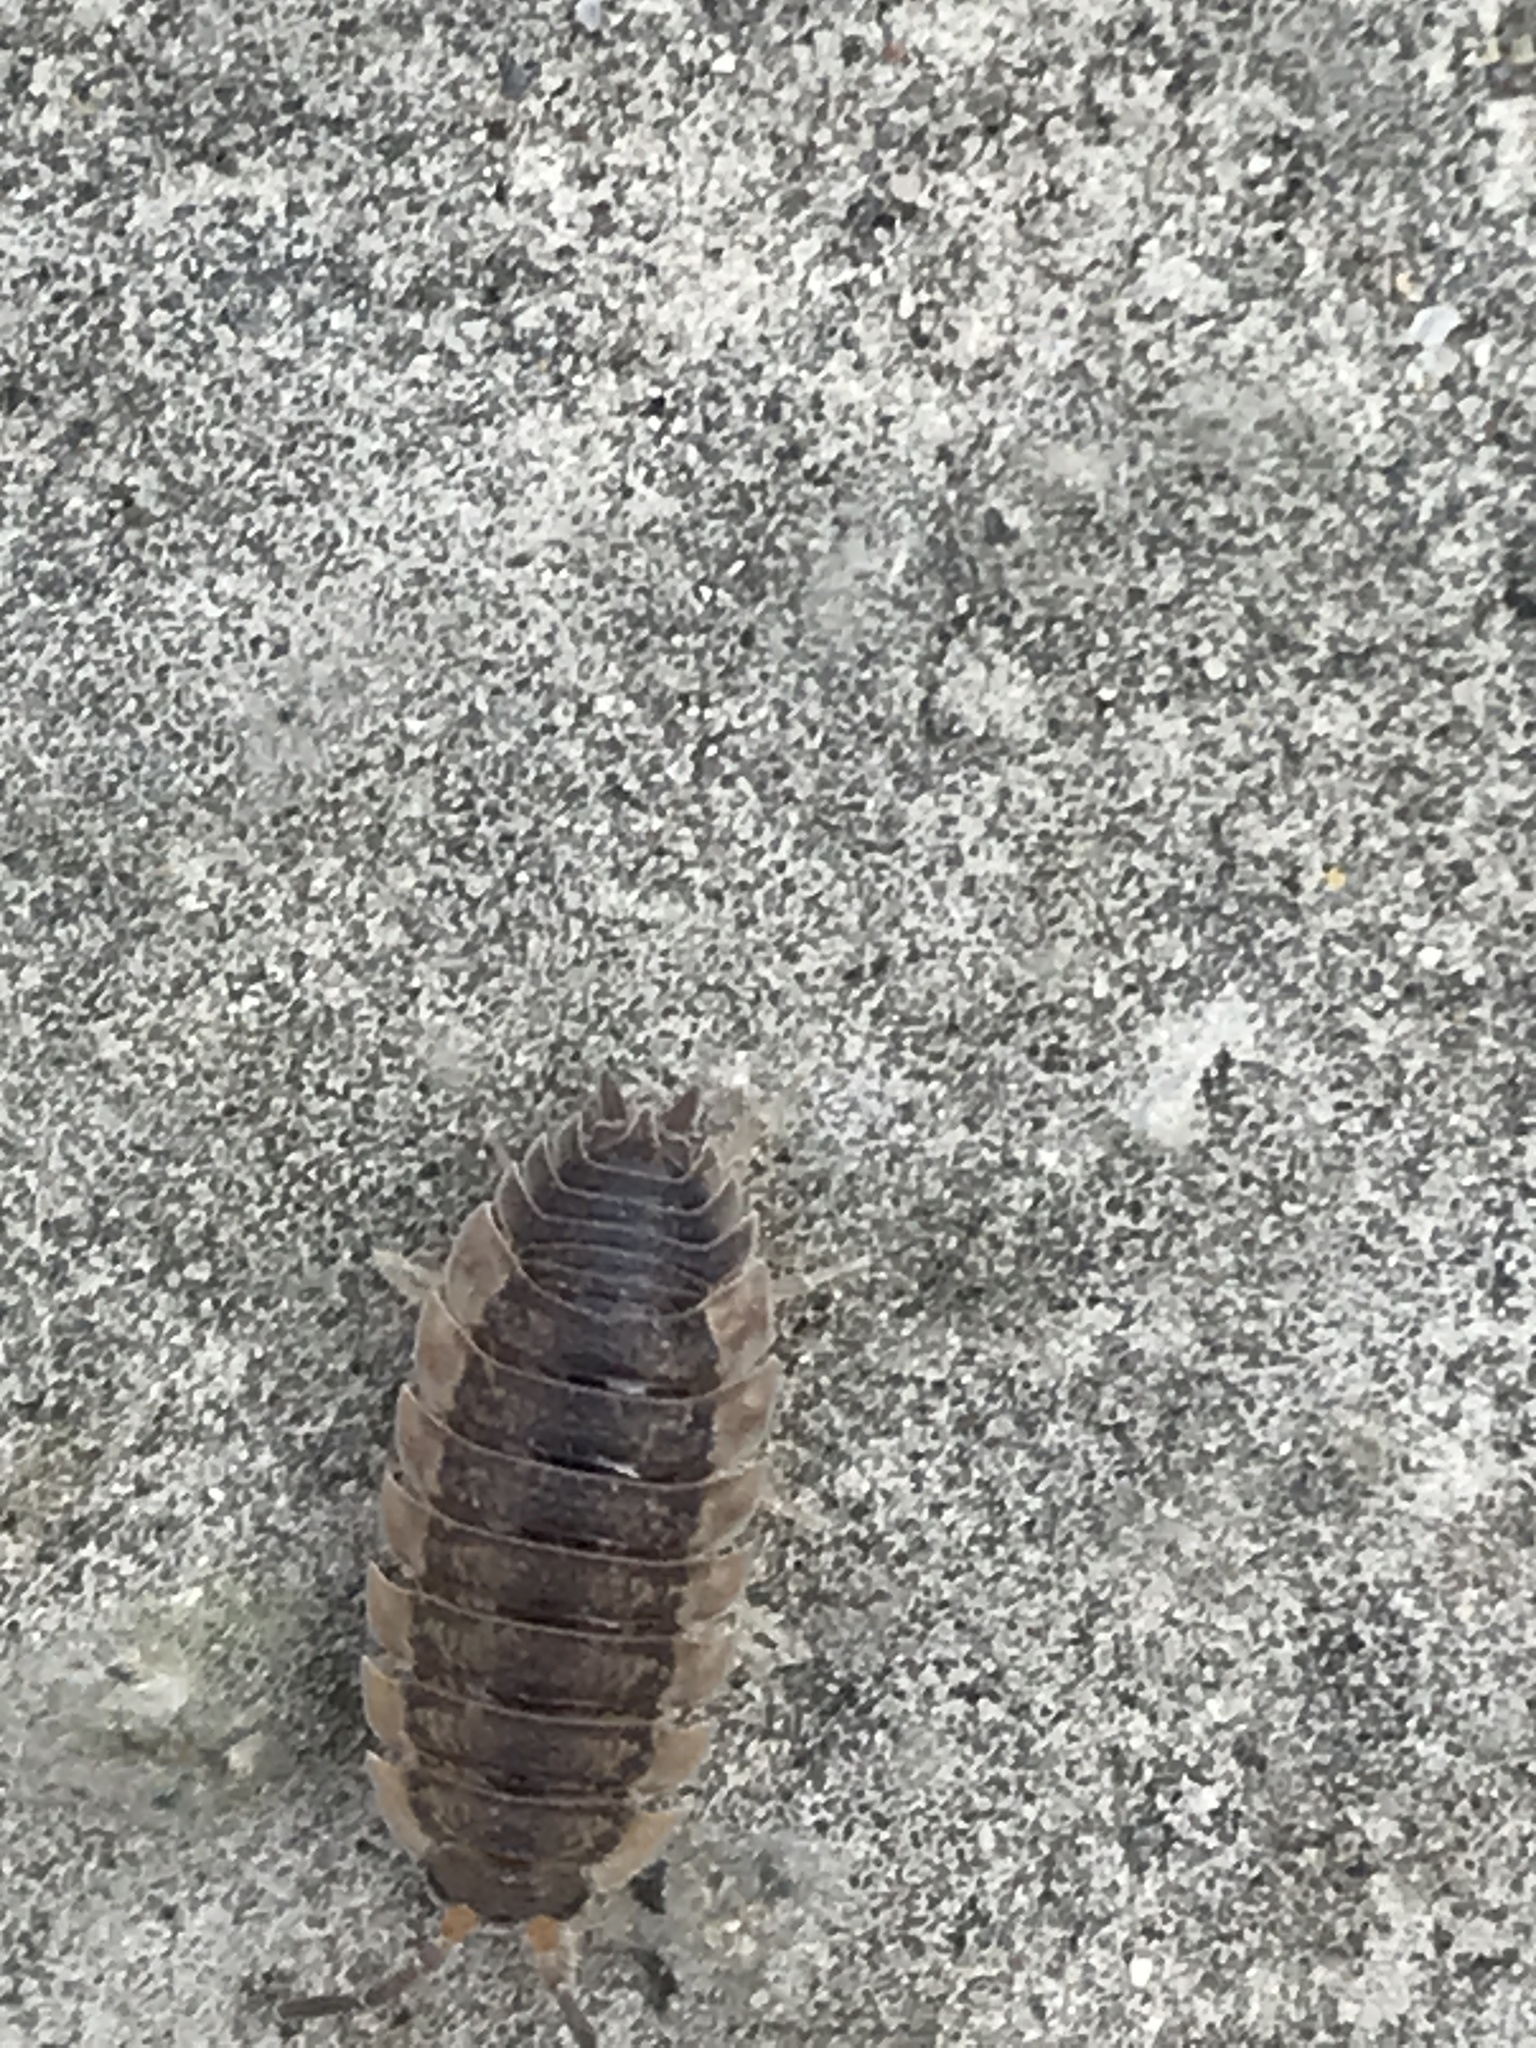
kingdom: Animalia
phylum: Arthropoda
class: Malacostraca
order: Isopoda
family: Porcellionidae
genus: Porcellio
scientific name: Porcellio scaber
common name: Common rough woodlouse
